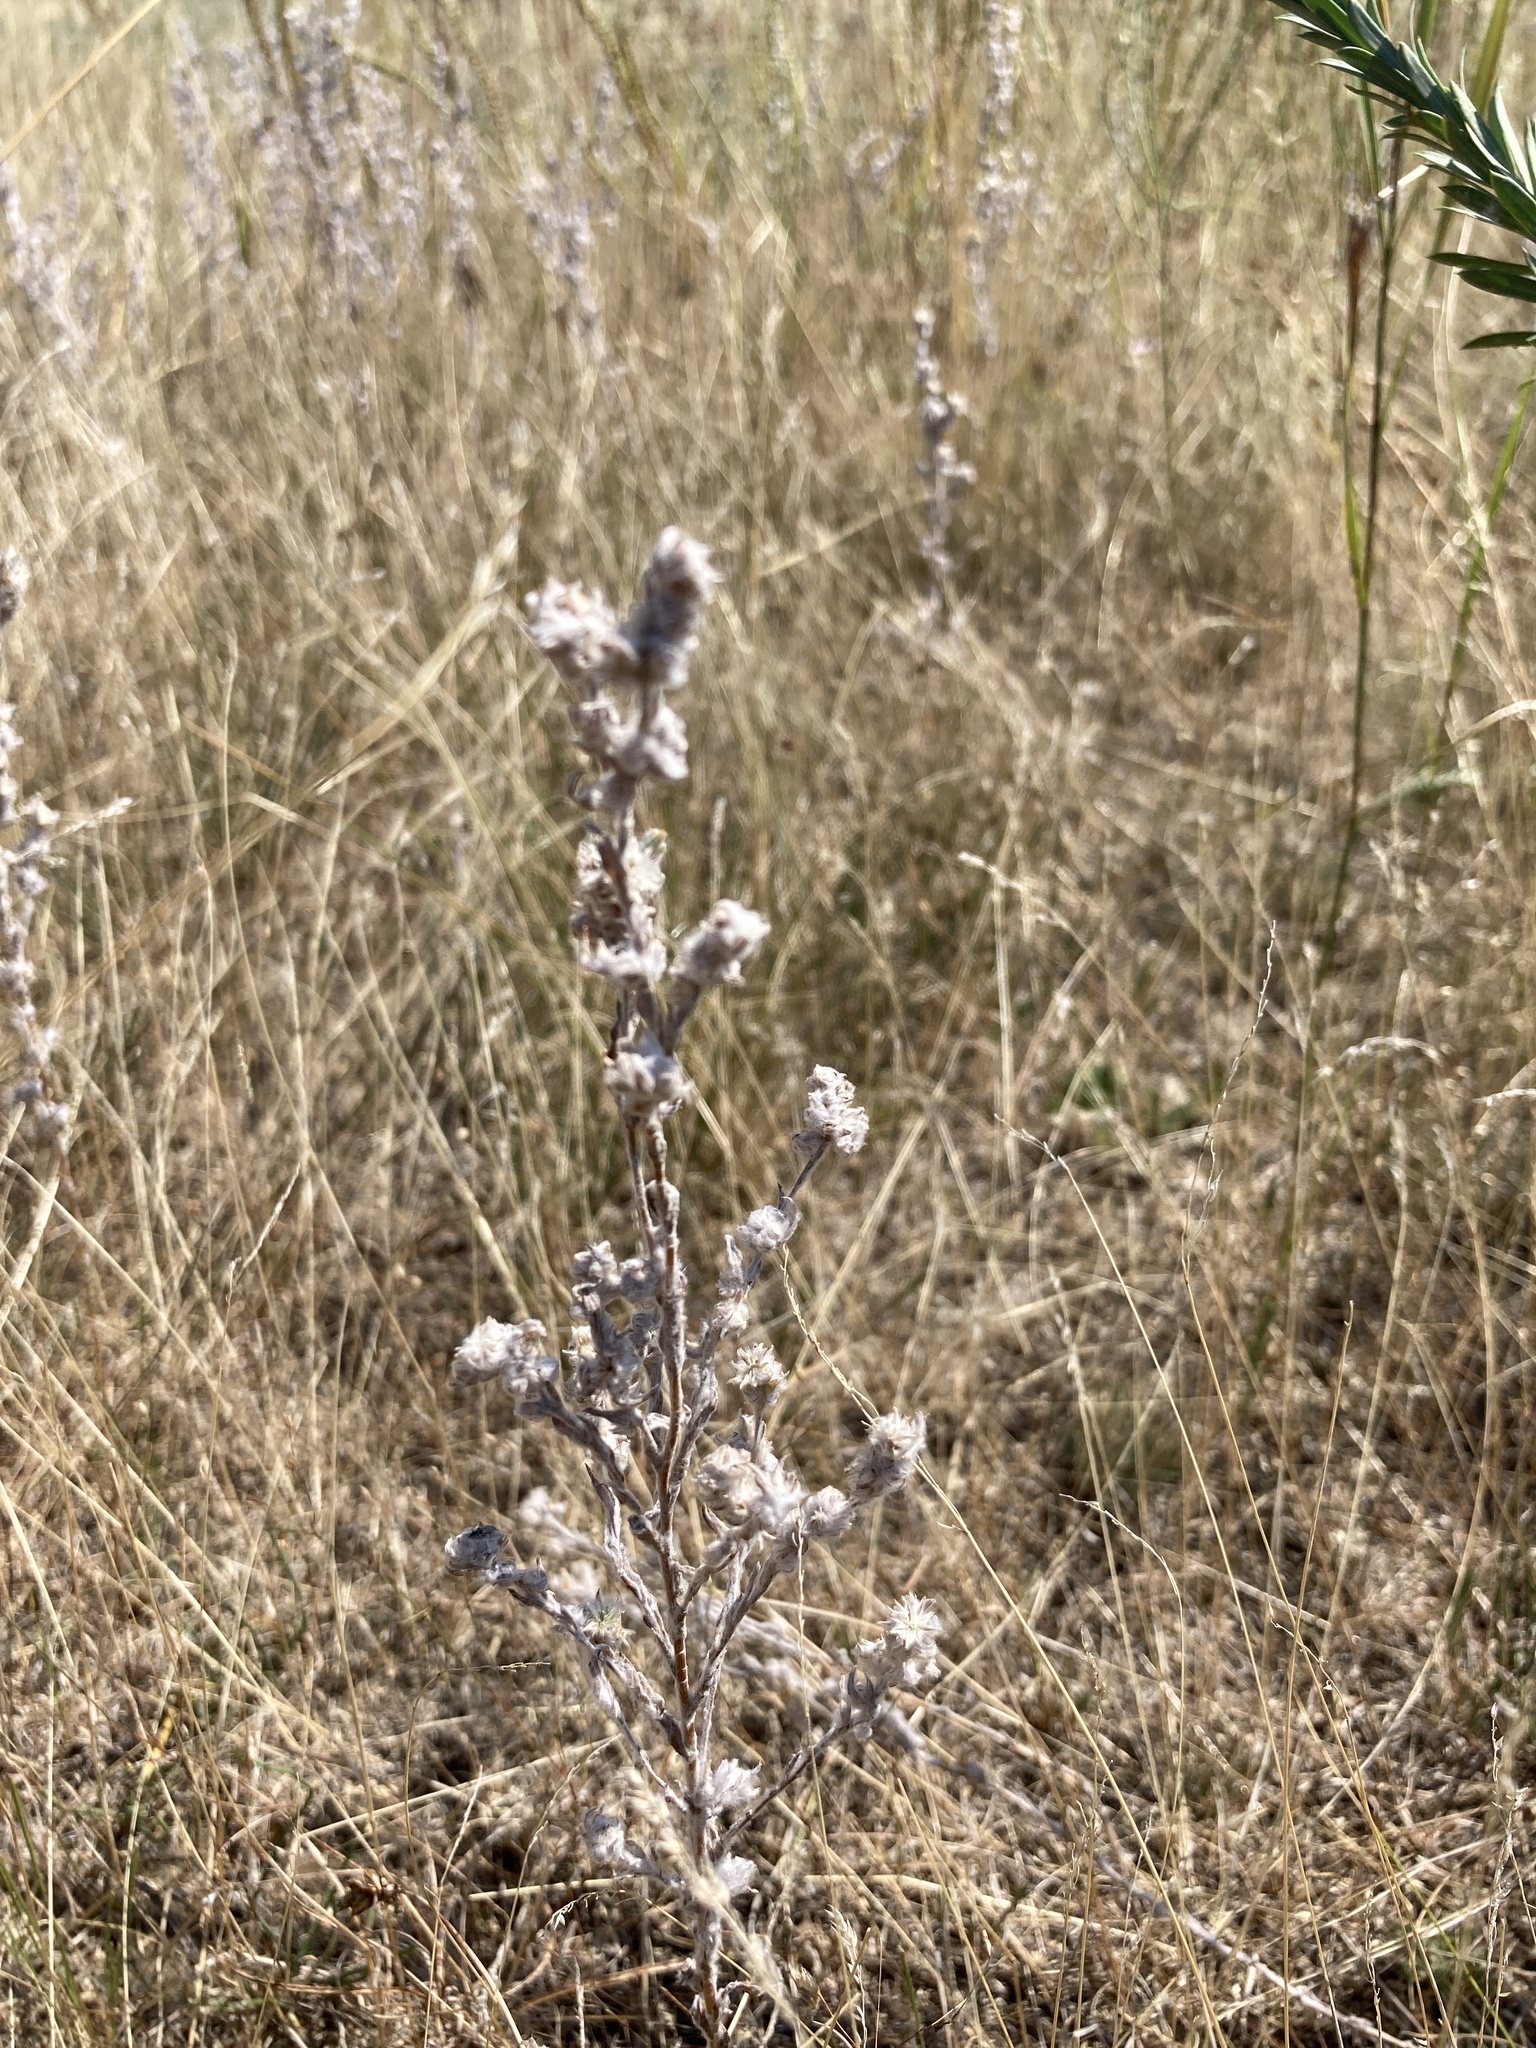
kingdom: Plantae
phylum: Tracheophyta
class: Magnoliopsida
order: Asterales
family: Asteraceae
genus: Filago
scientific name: Filago arvensis
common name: Field cudweed
